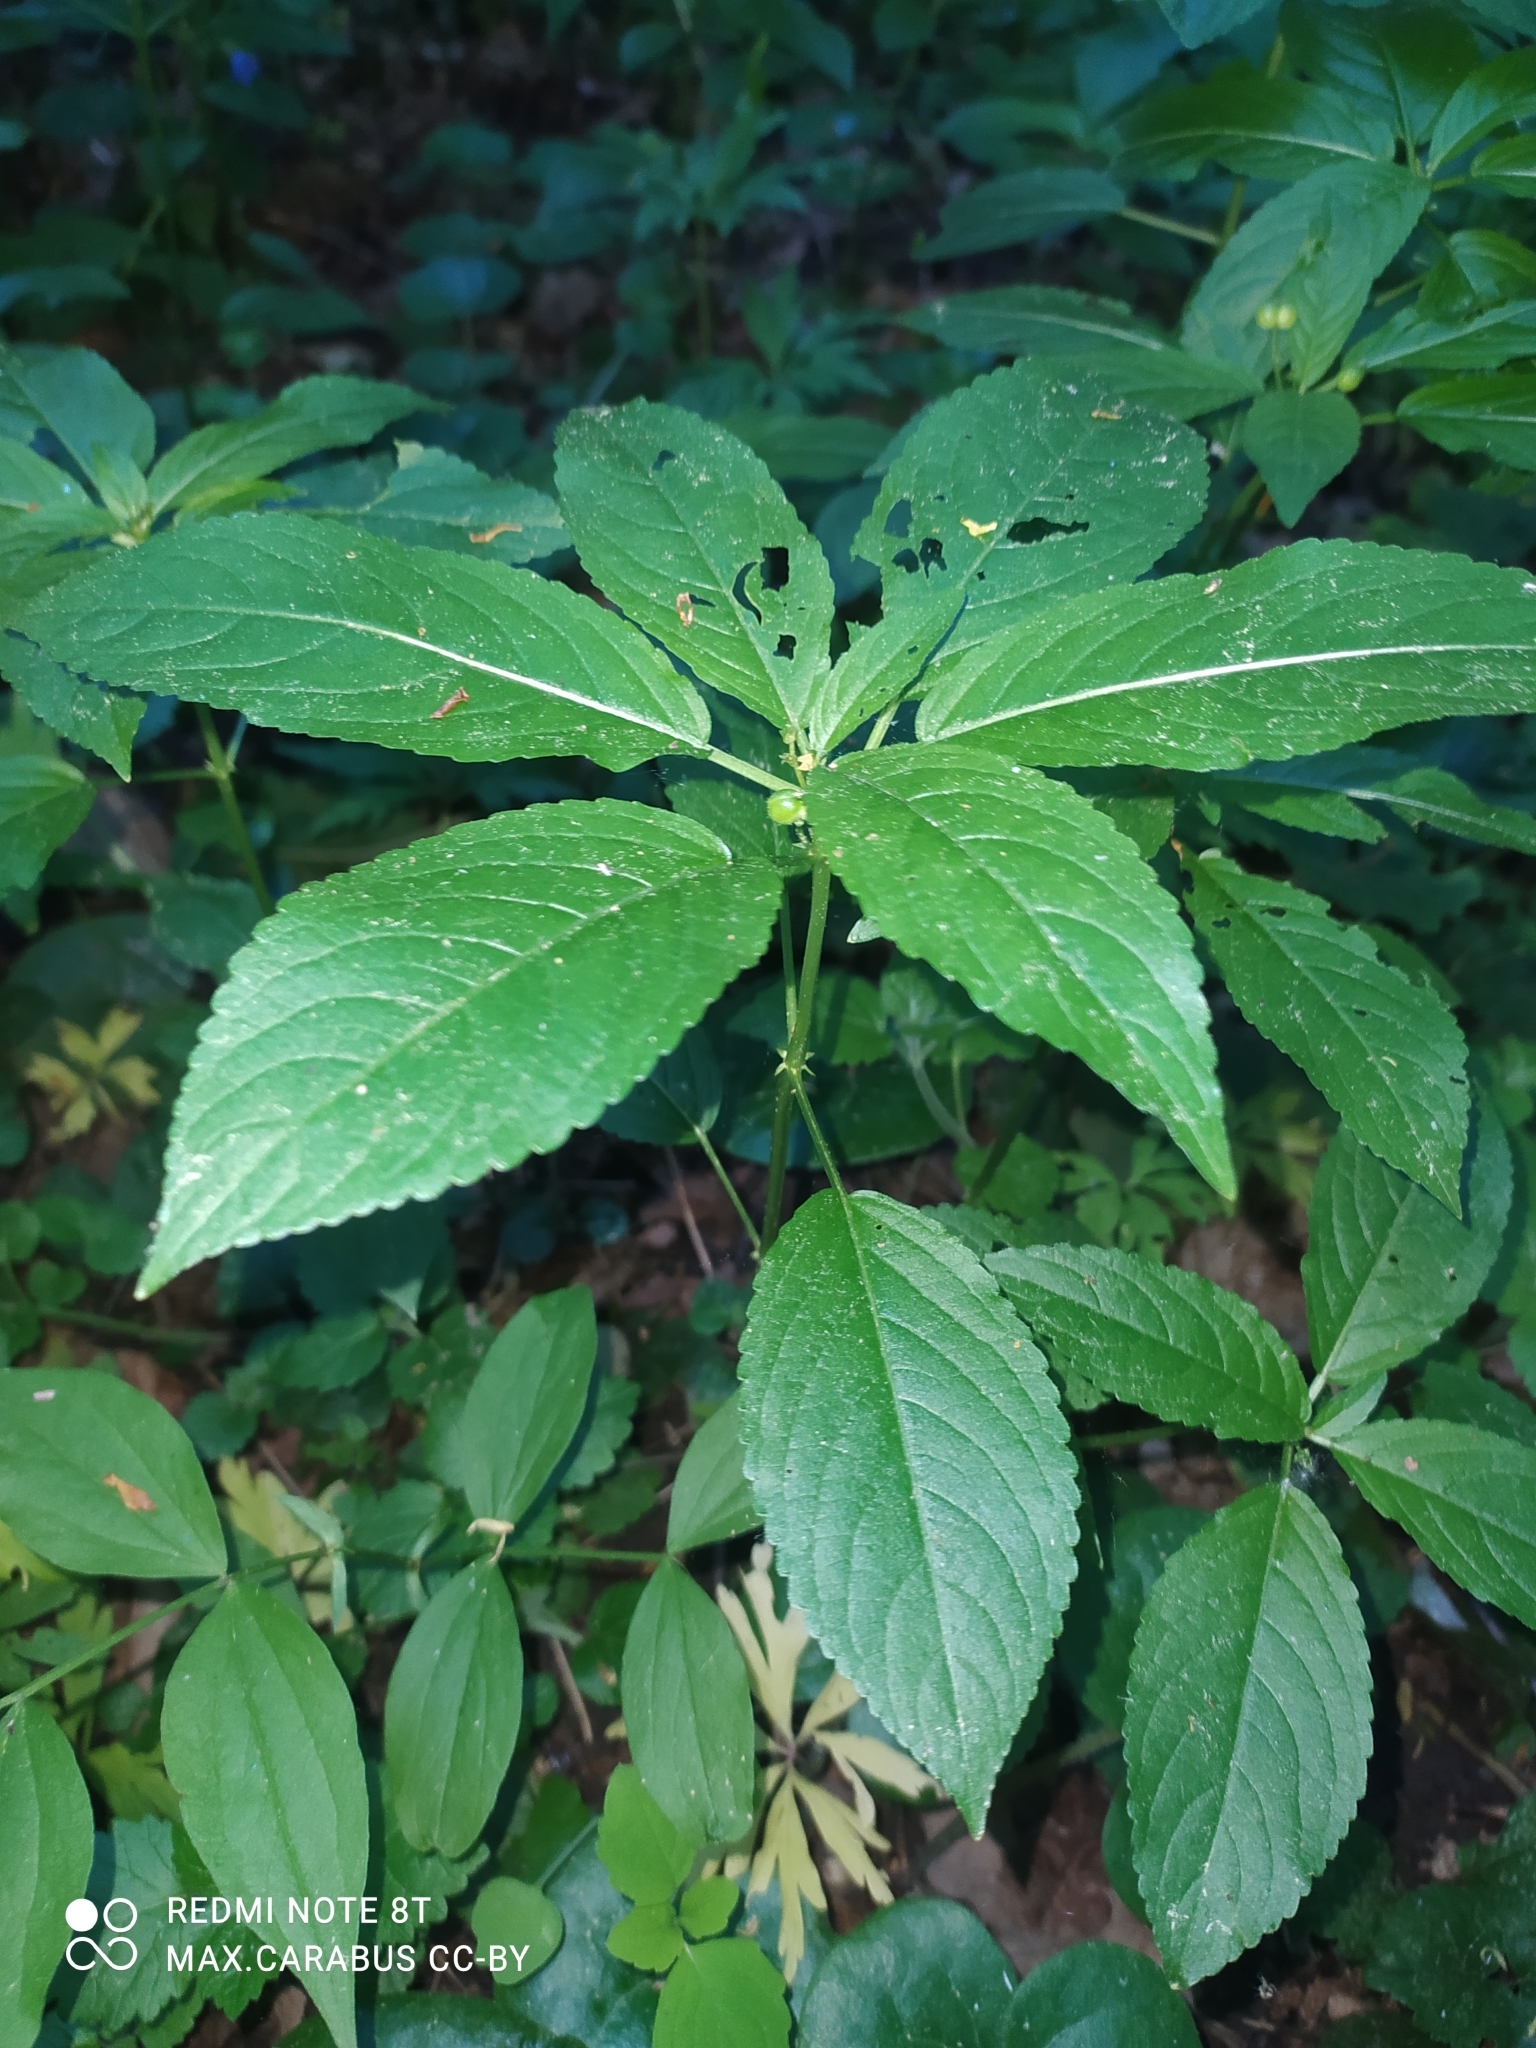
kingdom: Plantae
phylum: Tracheophyta
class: Magnoliopsida
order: Malpighiales
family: Euphorbiaceae
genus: Mercurialis
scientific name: Mercurialis perennis
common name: Dog mercury
